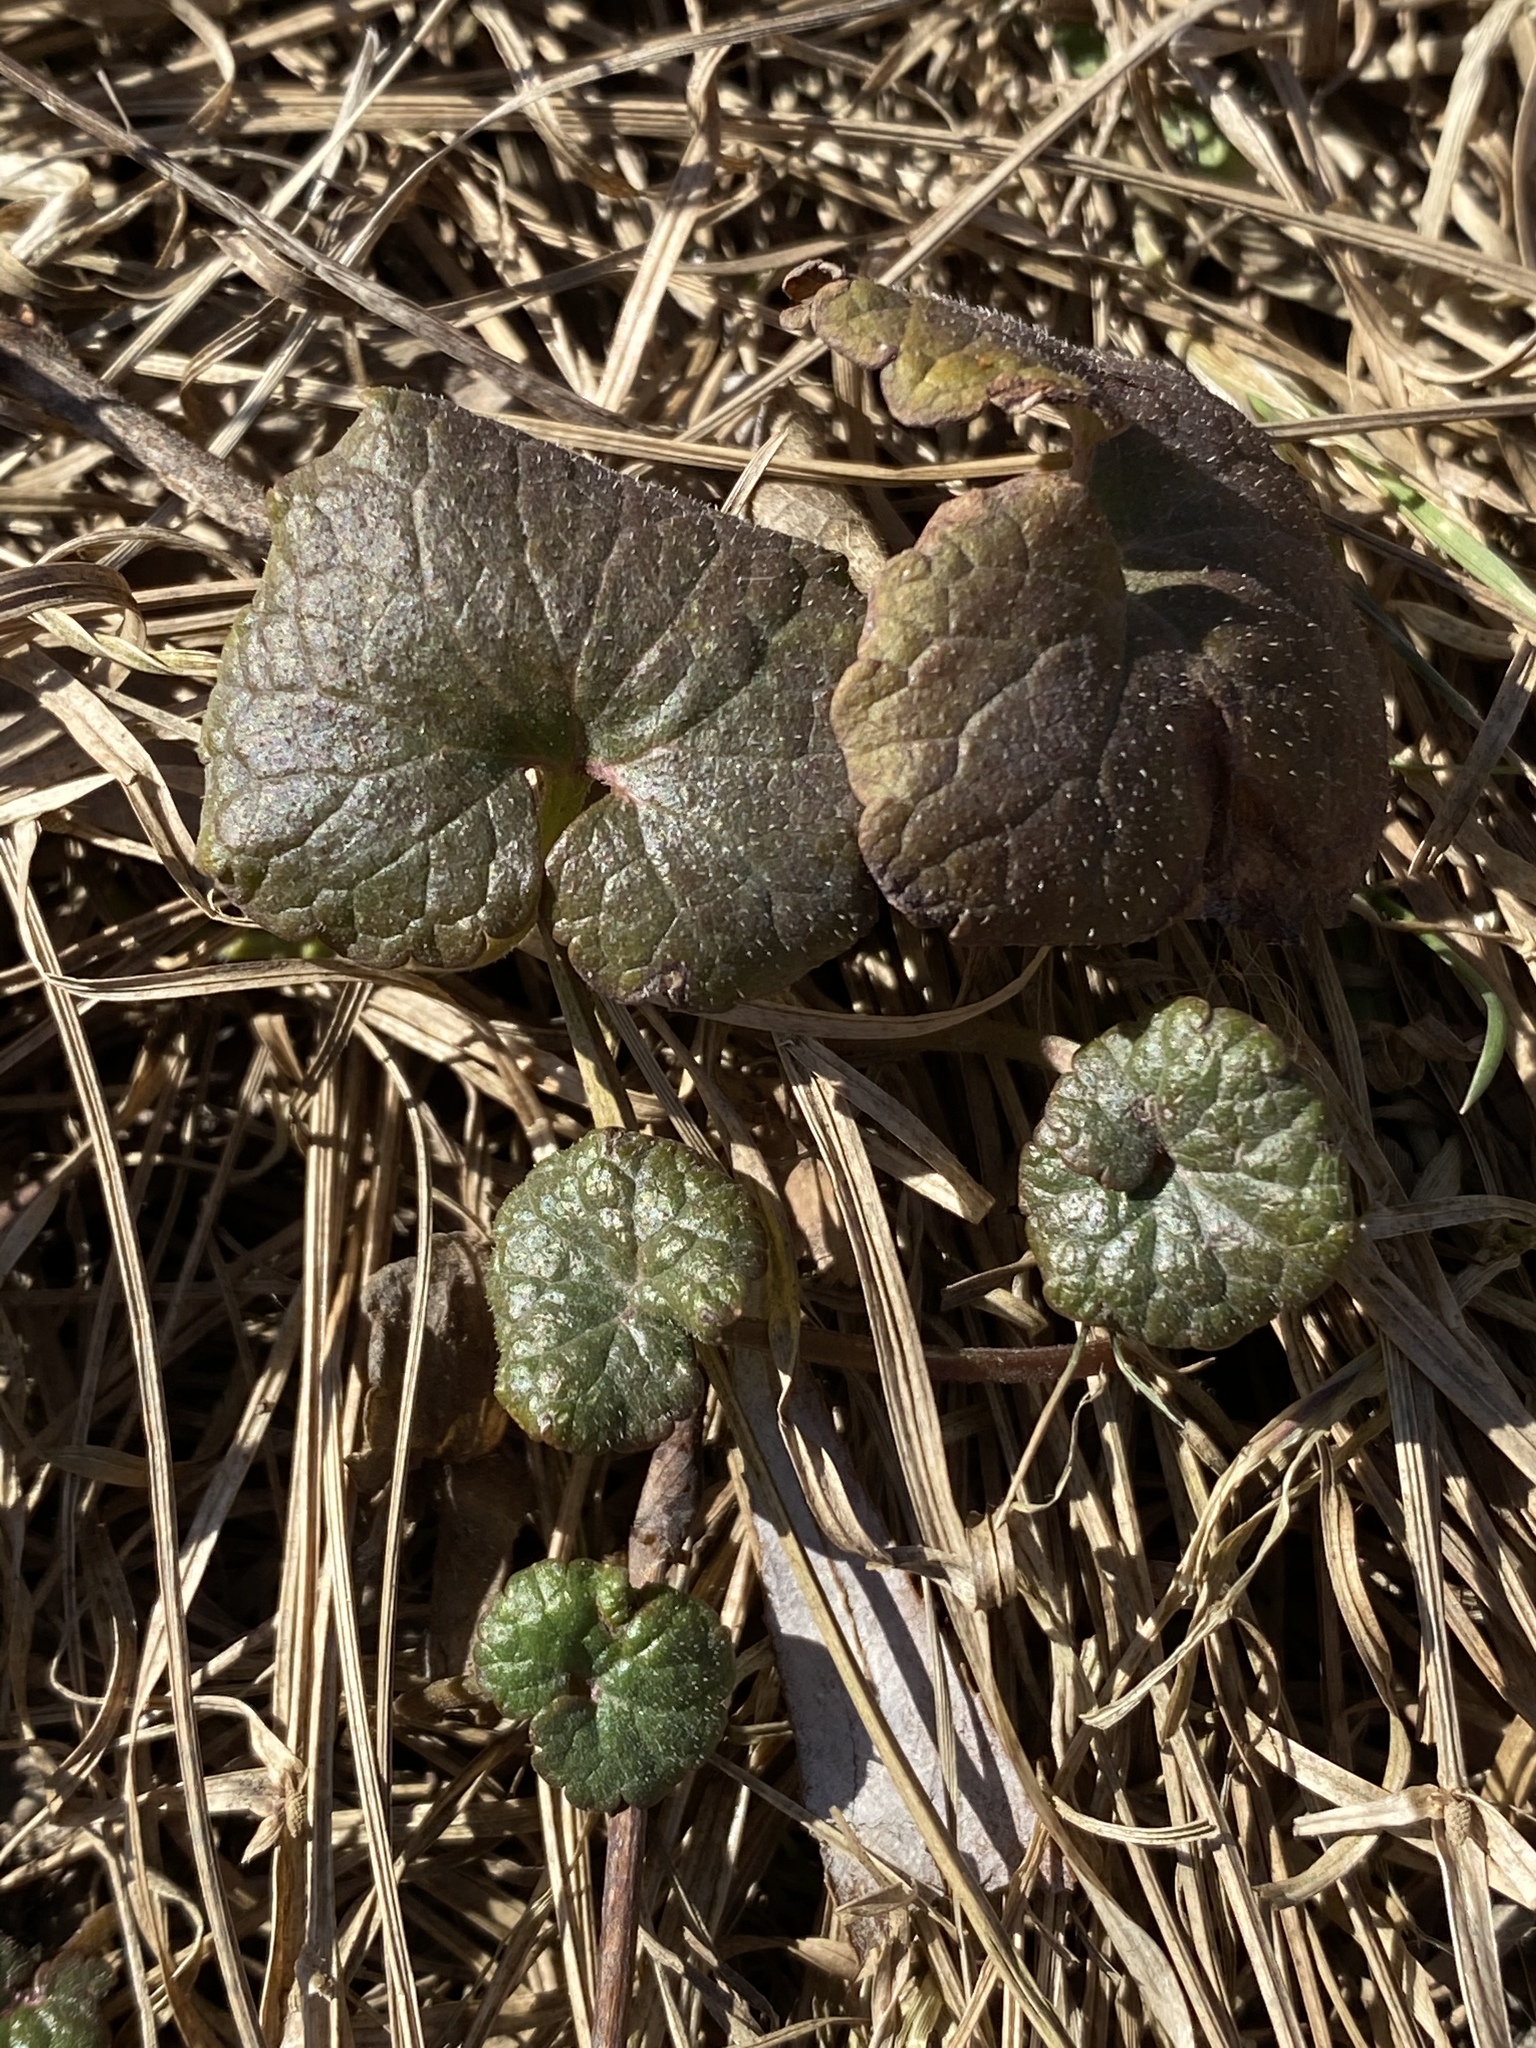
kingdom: Plantae
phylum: Tracheophyta
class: Magnoliopsida
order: Lamiales
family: Lamiaceae
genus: Glechoma
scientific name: Glechoma hederacea
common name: Ground ivy
